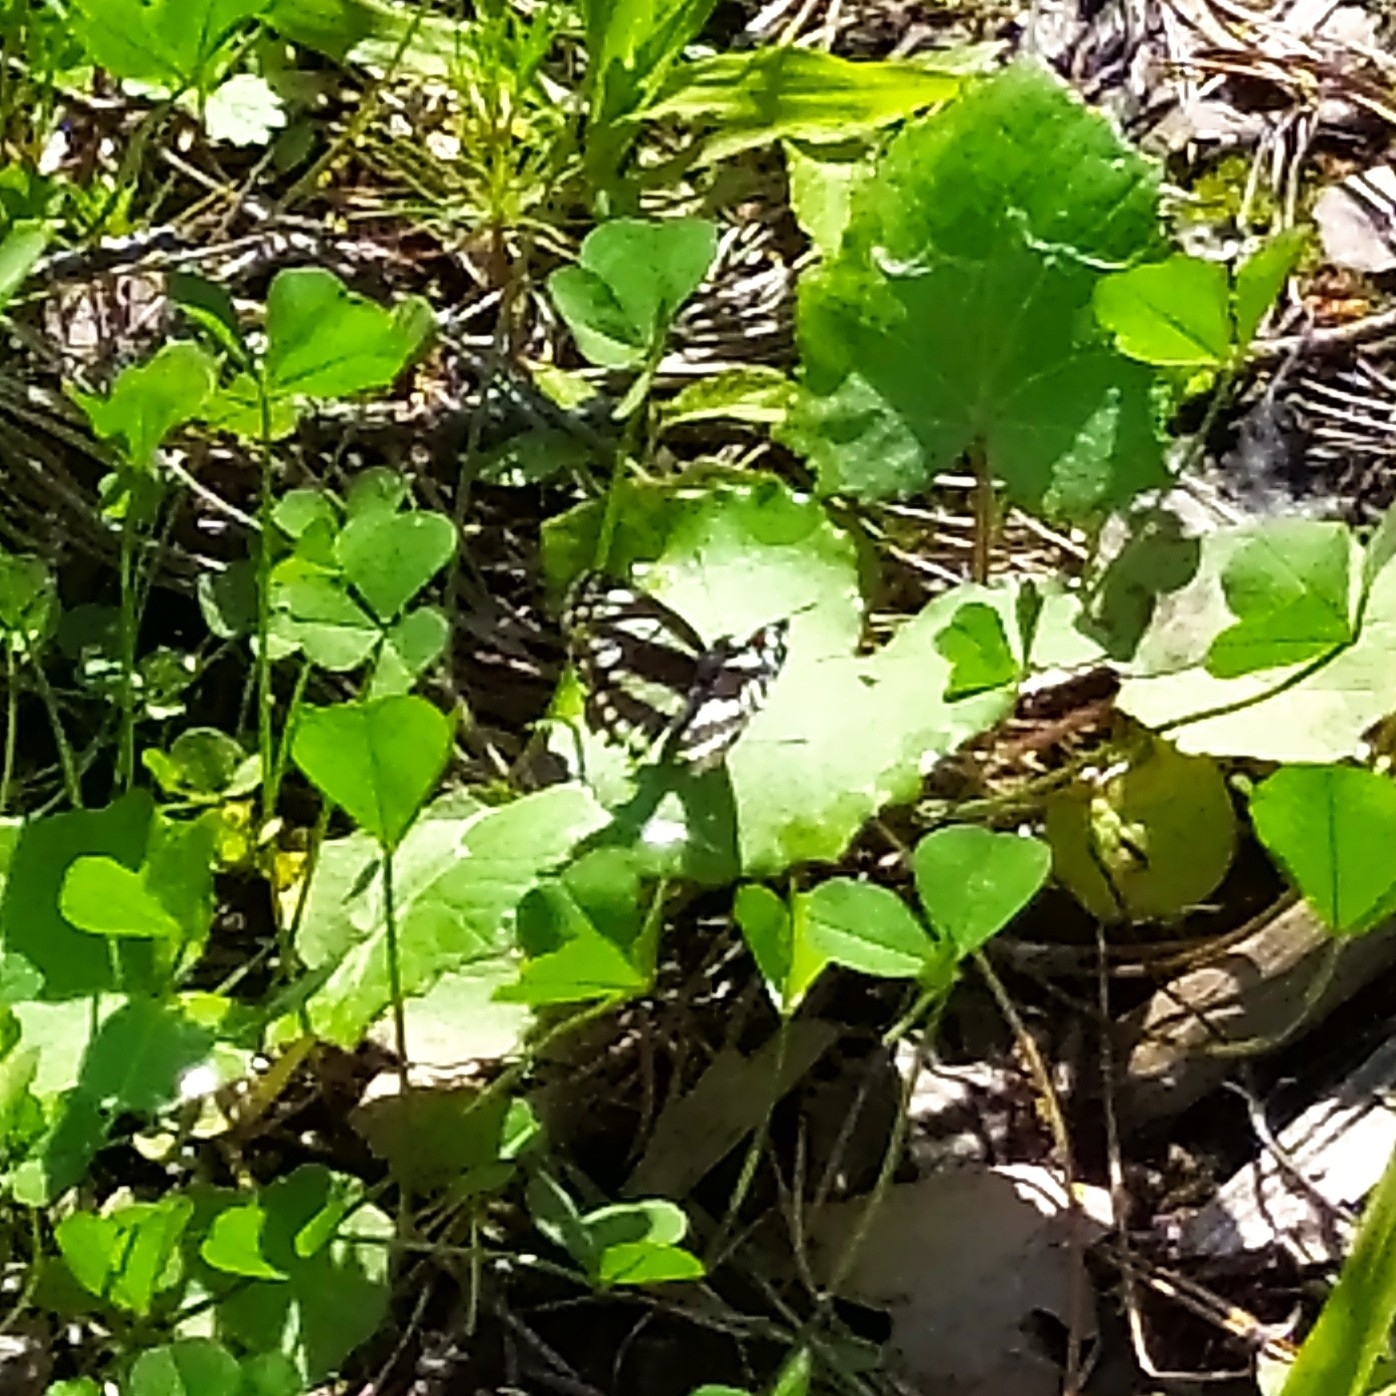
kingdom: Animalia
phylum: Arthropoda
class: Insecta
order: Lepidoptera
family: Nymphalidae
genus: Neptis
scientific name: Neptis sappho
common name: Common glider
